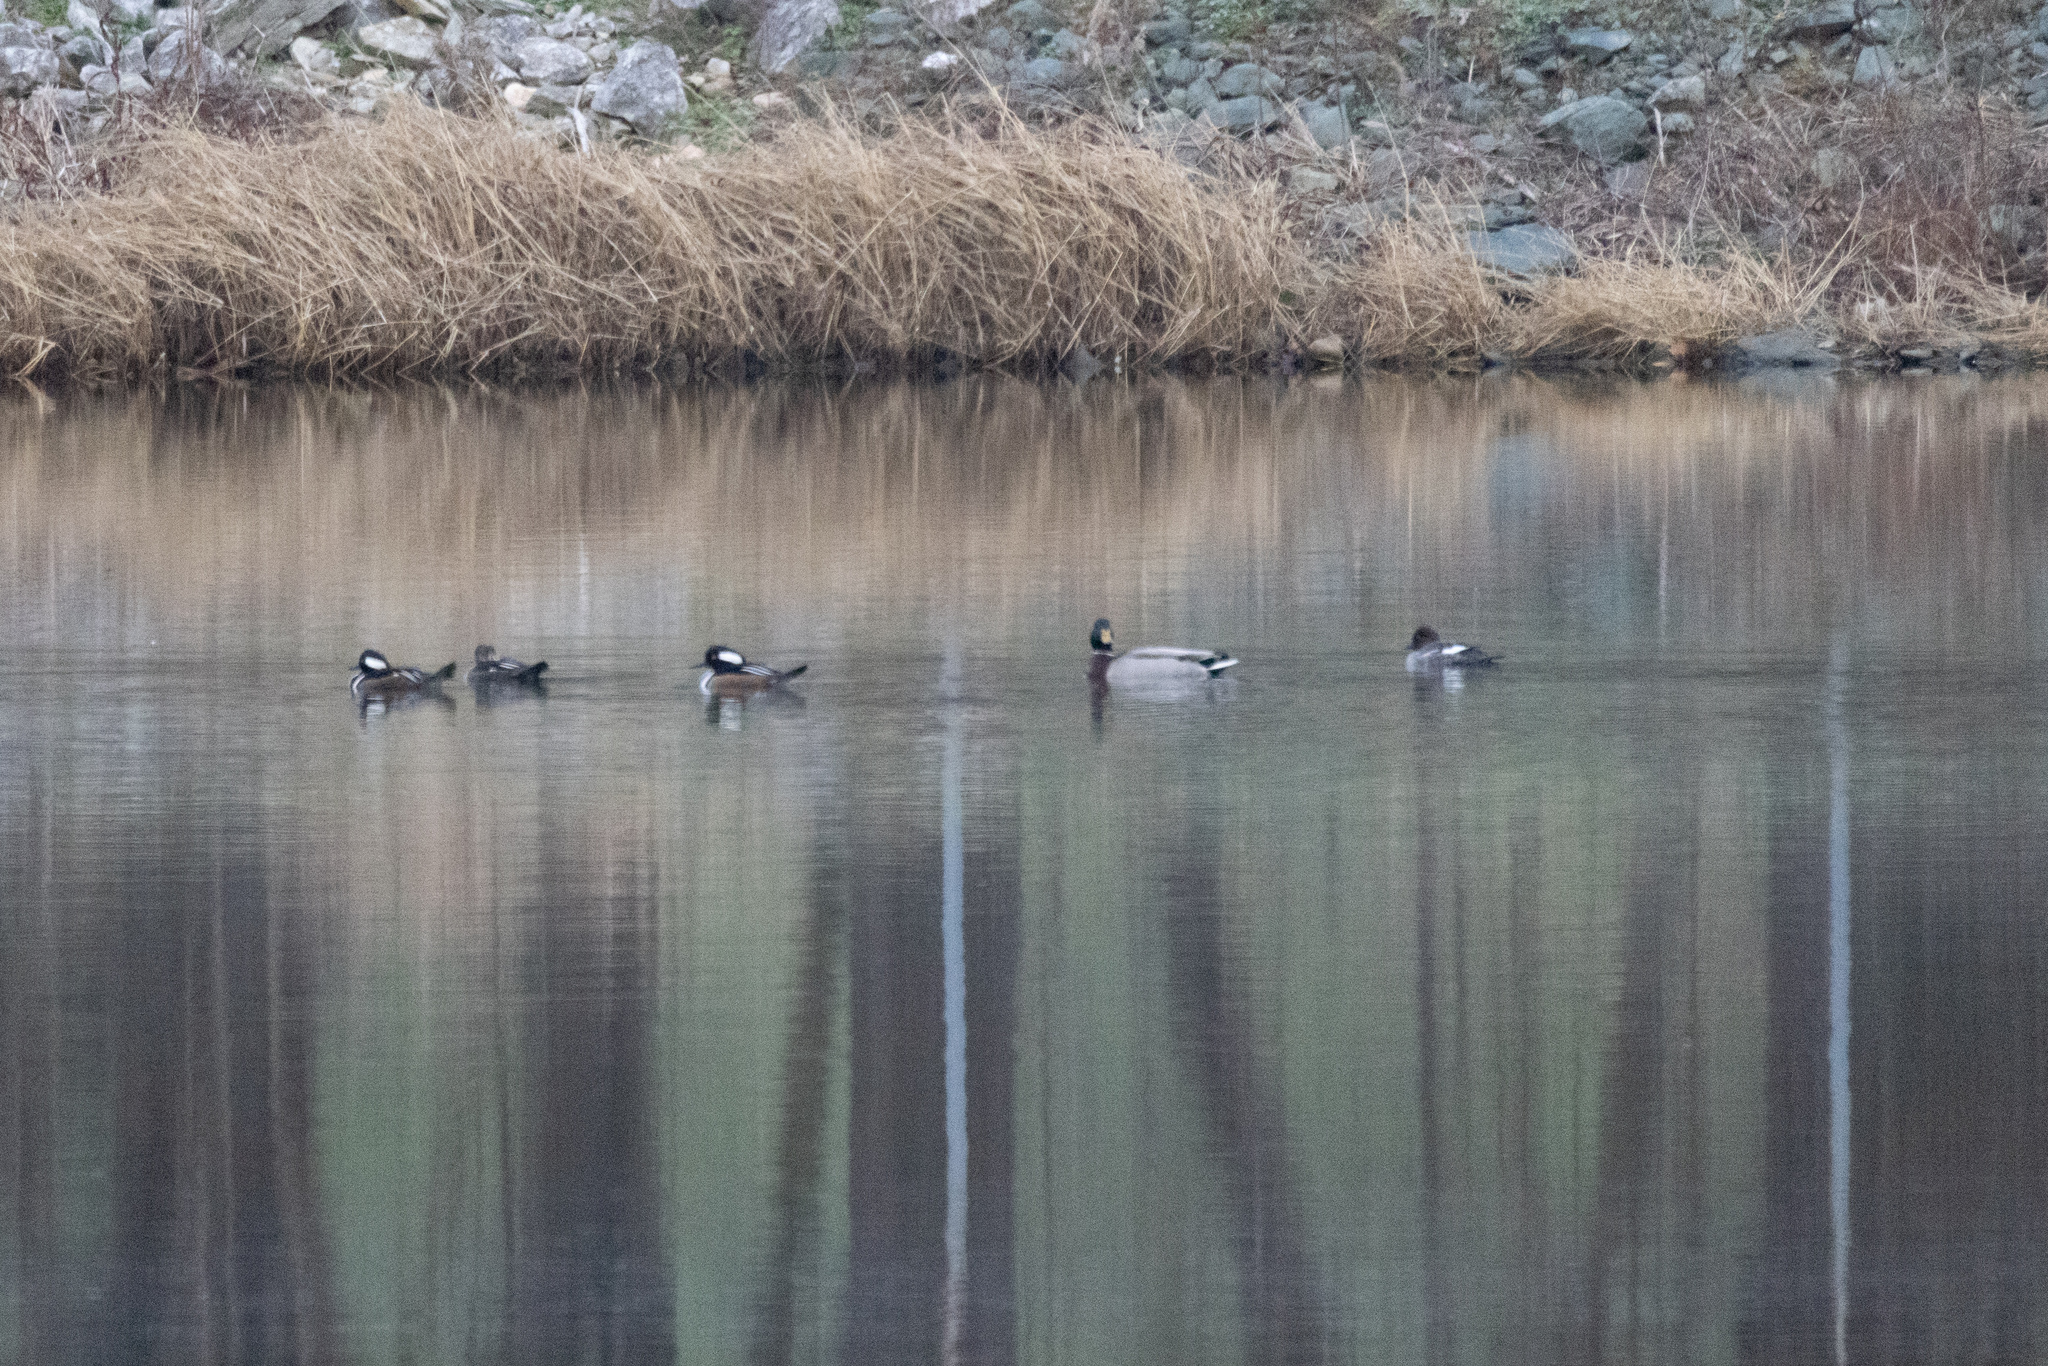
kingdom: Animalia
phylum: Chordata
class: Aves
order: Anseriformes
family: Anatidae
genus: Lophodytes
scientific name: Lophodytes cucullatus
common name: Hooded merganser
